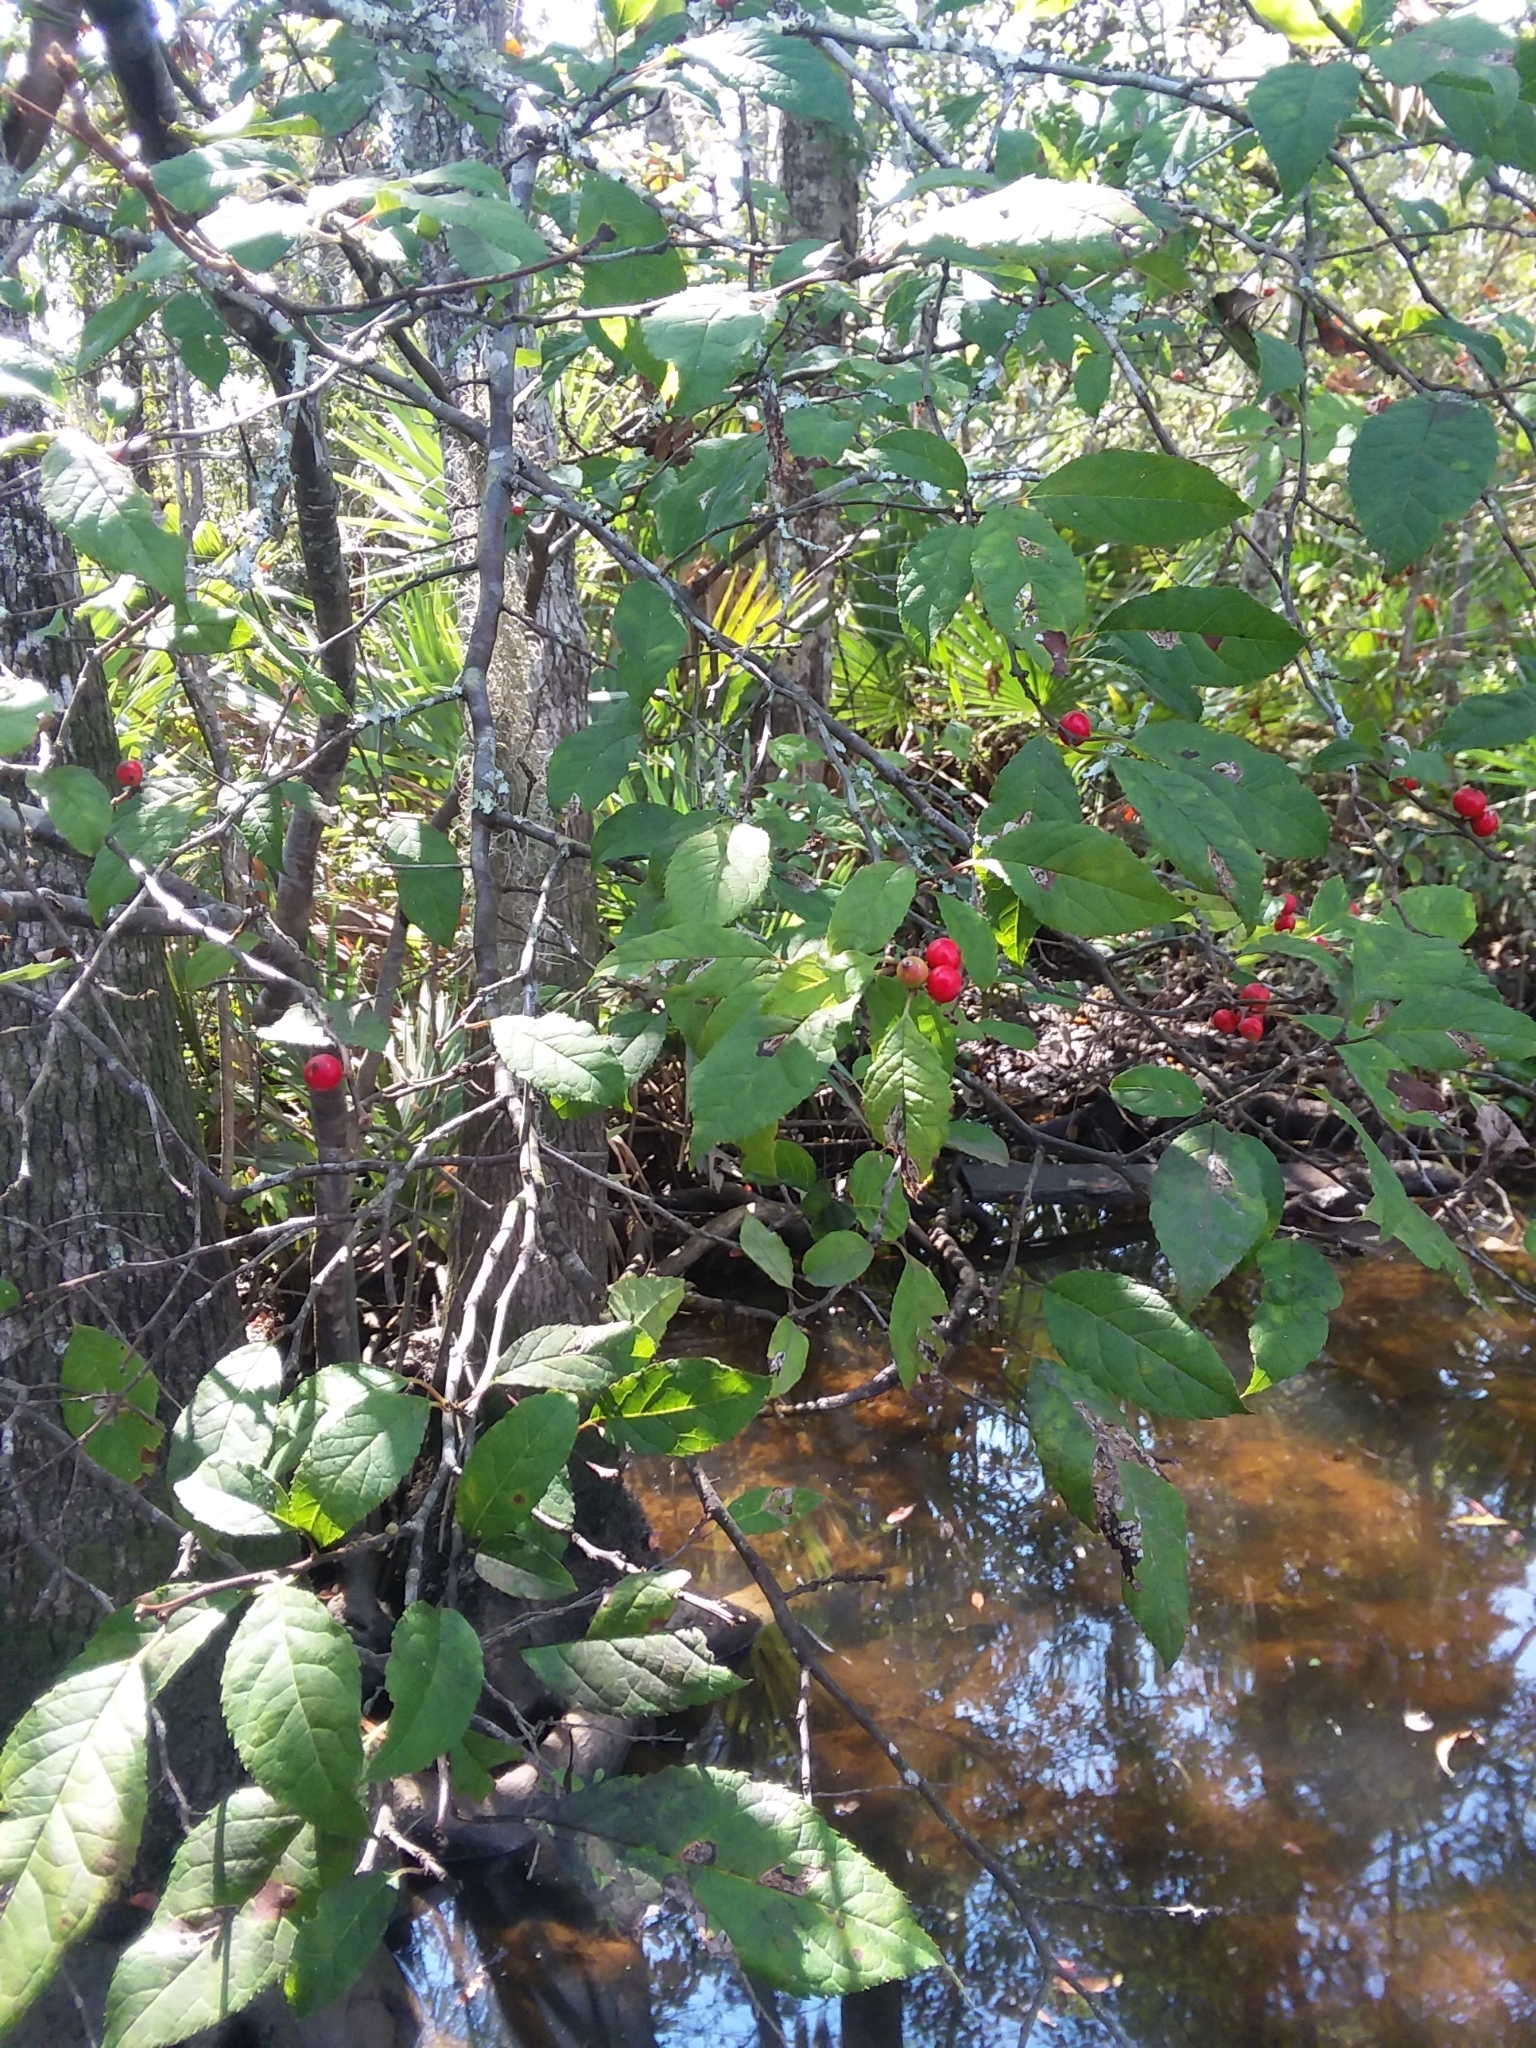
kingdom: Plantae
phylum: Tracheophyta
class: Magnoliopsida
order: Aquifoliales
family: Aquifoliaceae
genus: Ilex
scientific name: Ilex verticillata
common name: Virginia winterberry
